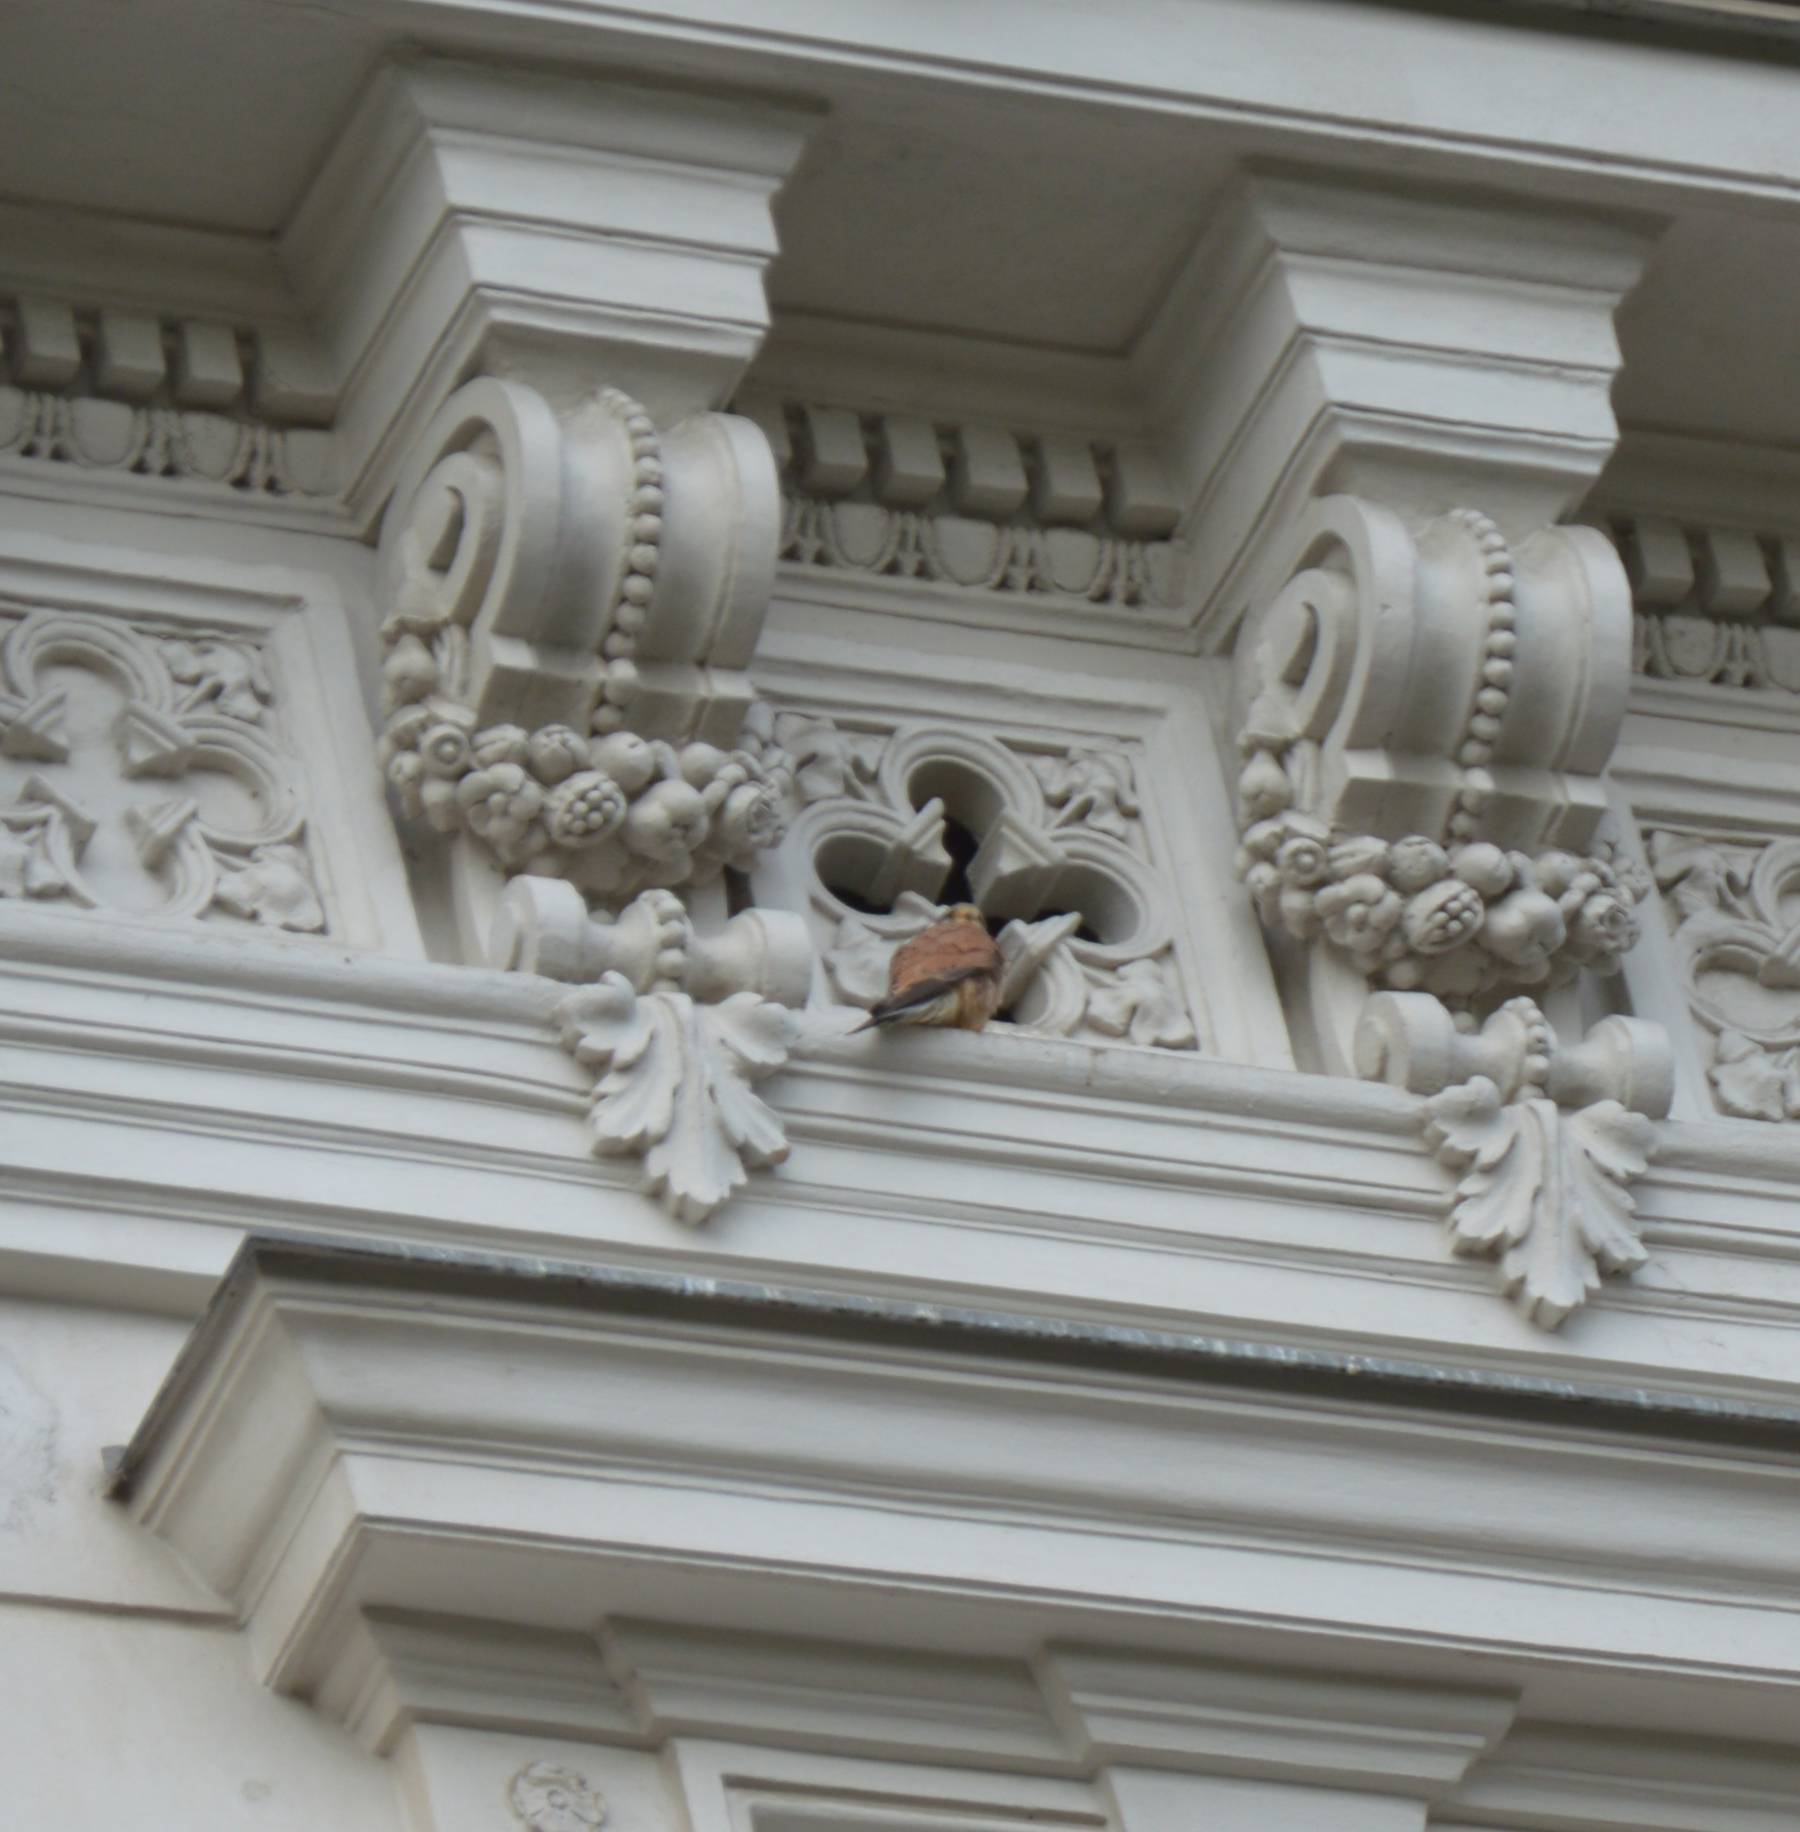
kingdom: Animalia
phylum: Chordata
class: Aves
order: Falconiformes
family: Falconidae
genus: Falco
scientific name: Falco tinnunculus
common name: Common kestrel
